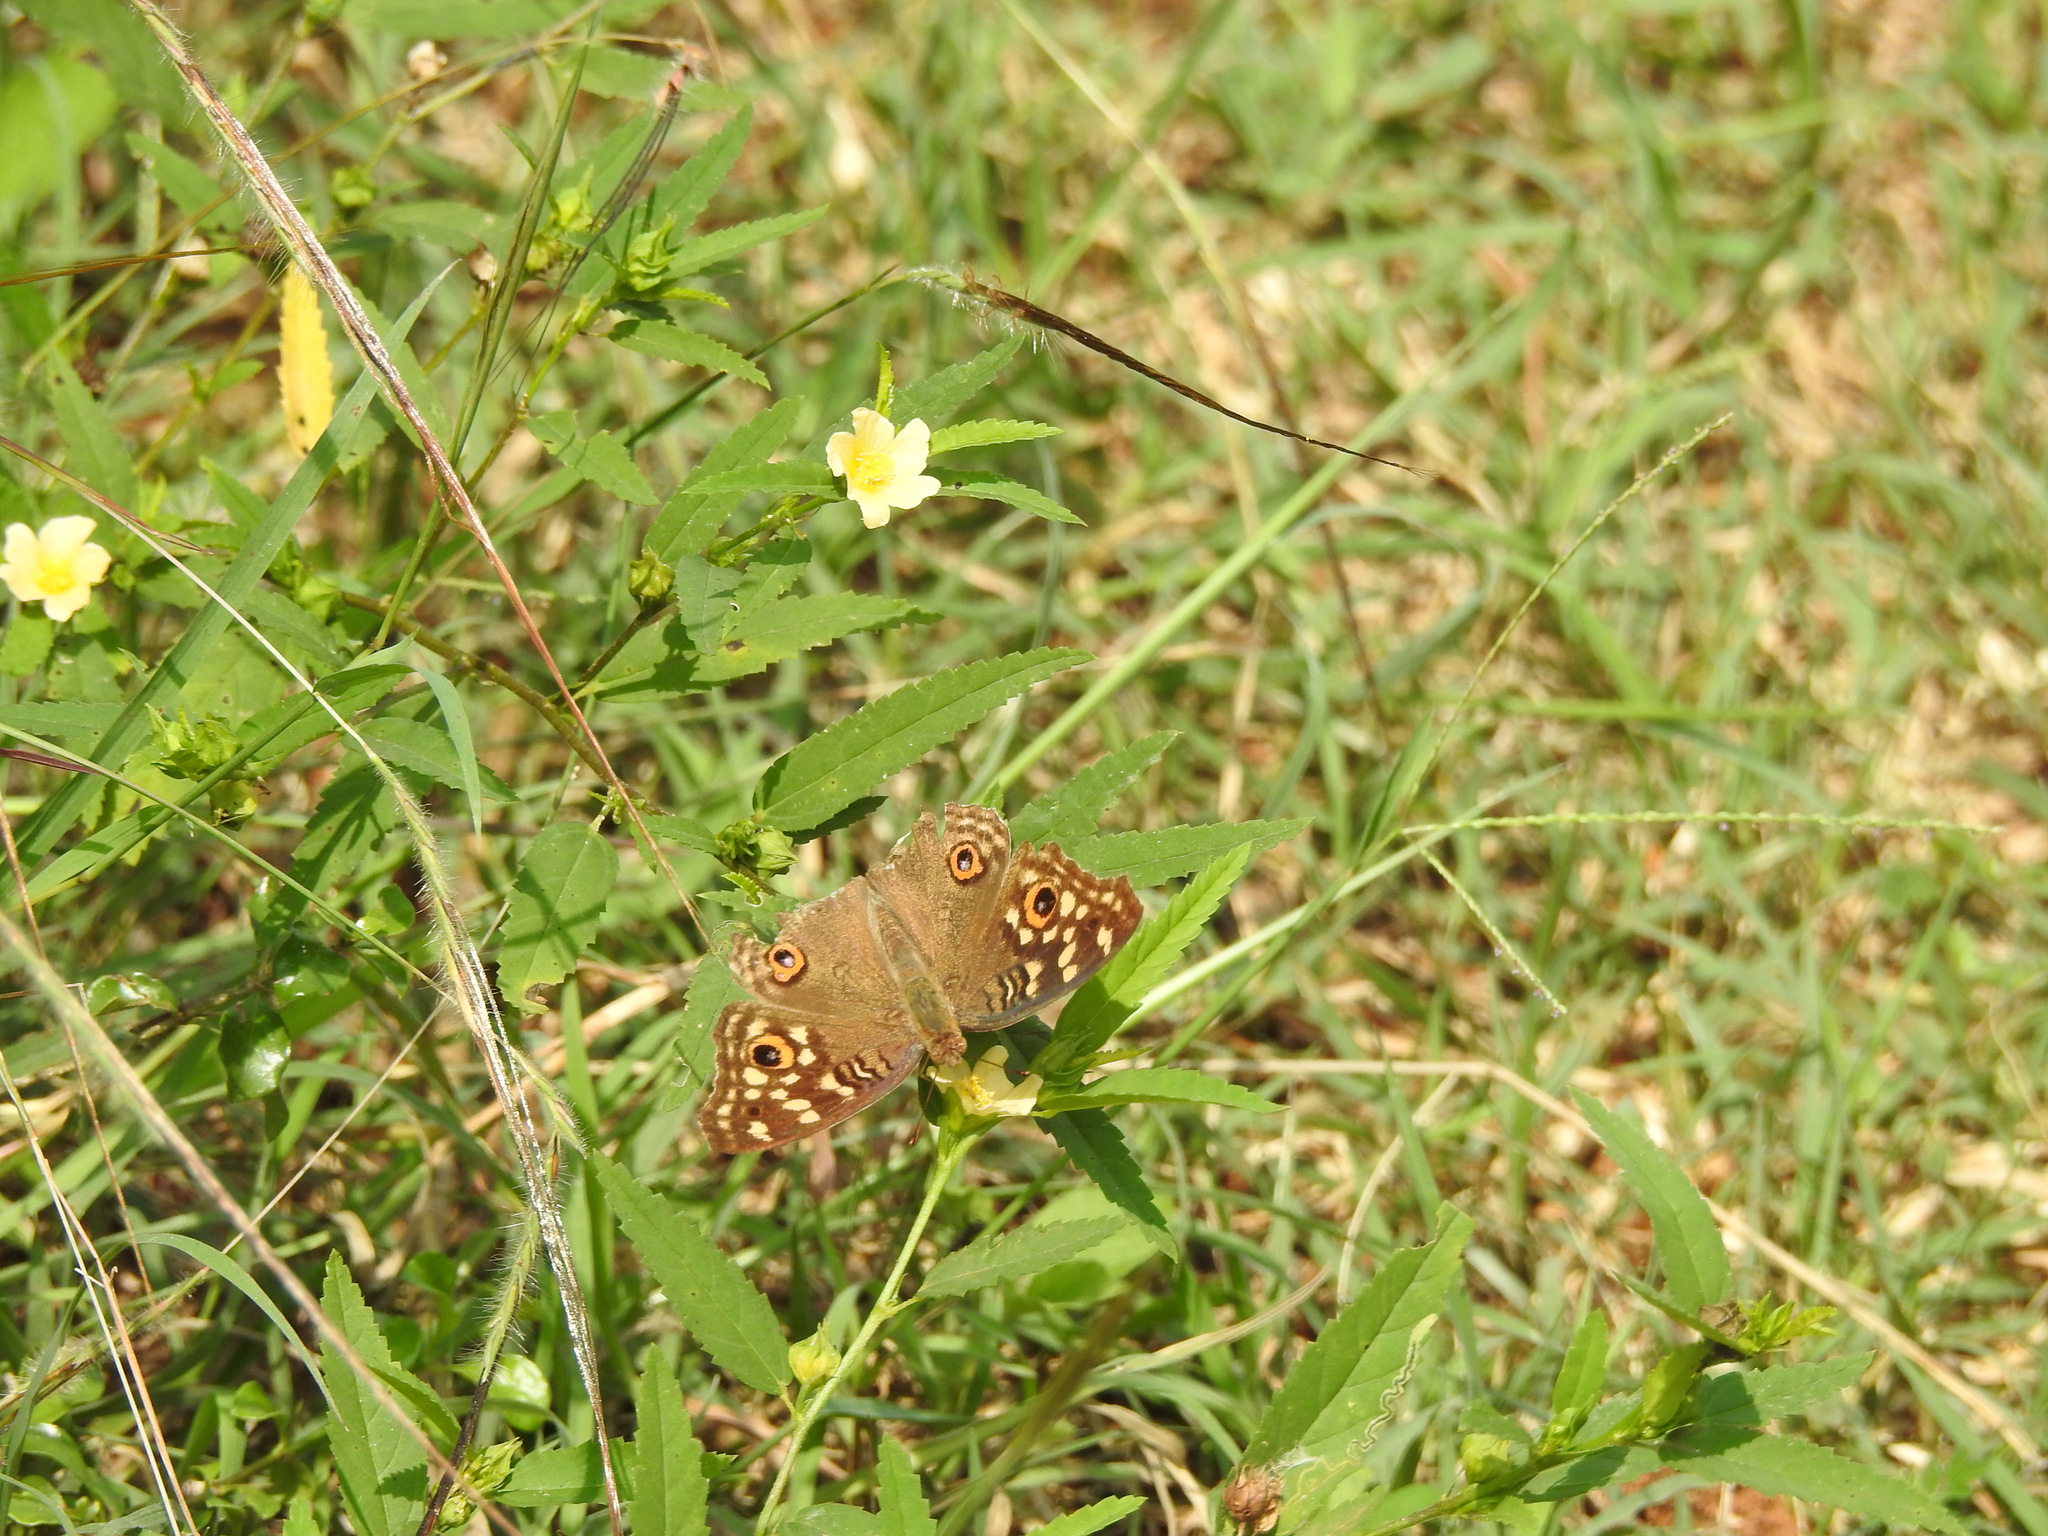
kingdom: Animalia
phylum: Arthropoda
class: Insecta
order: Lepidoptera
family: Nymphalidae
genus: Junonia
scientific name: Junonia lemonias
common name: Lemon pansy
